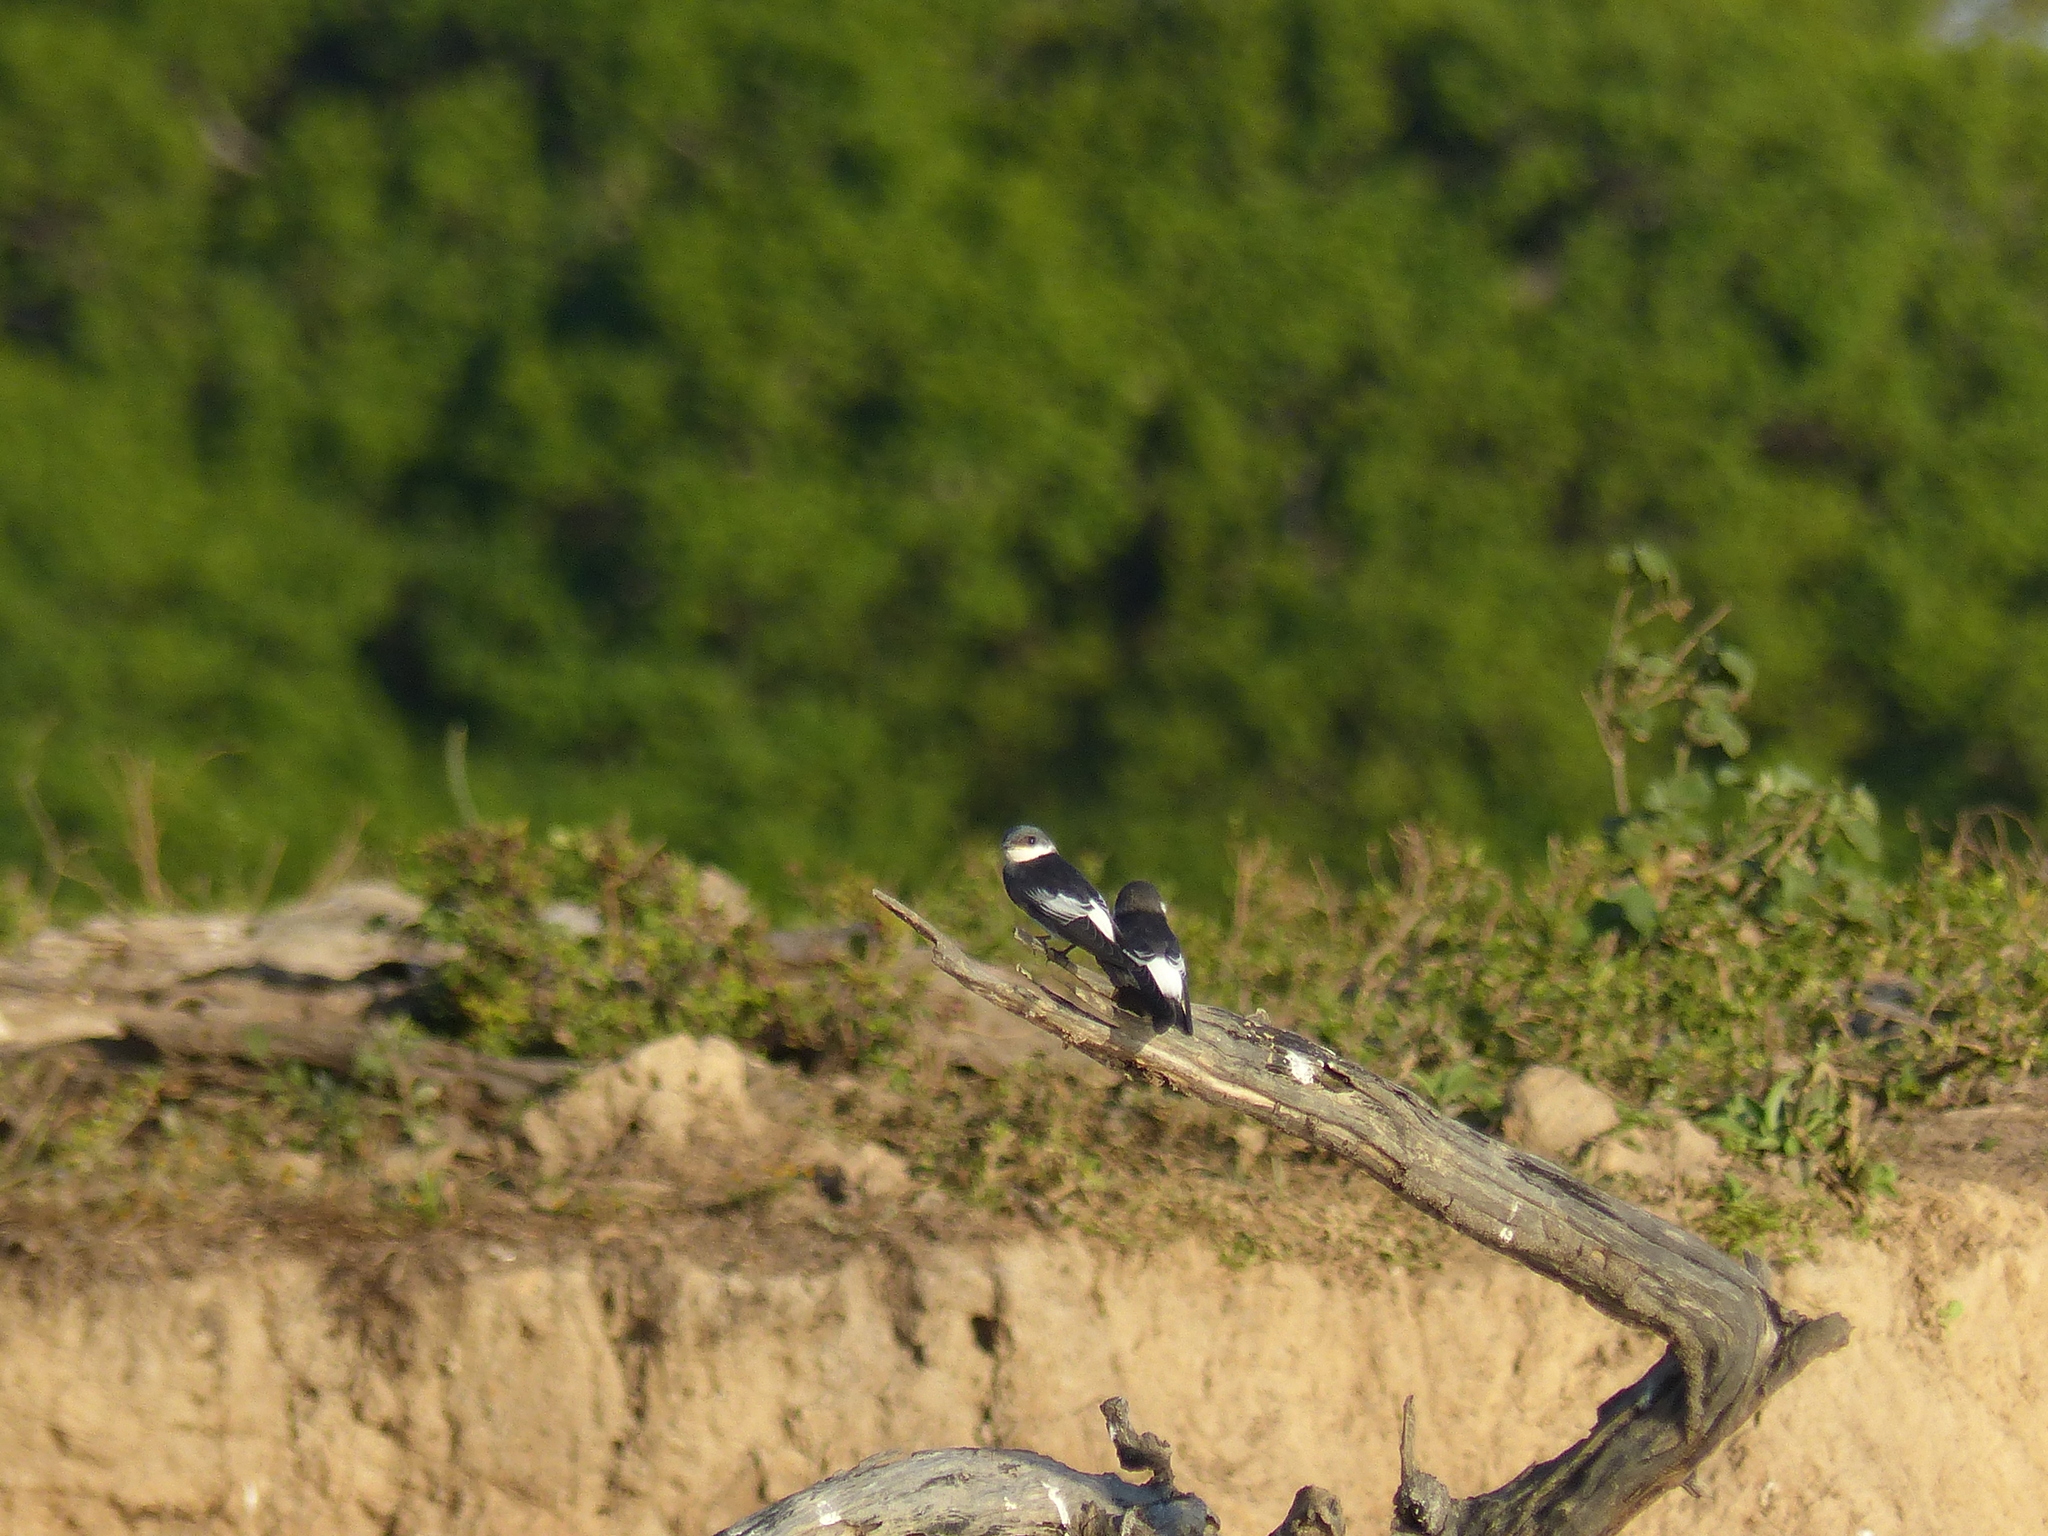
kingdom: Animalia
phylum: Chordata
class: Aves
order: Passeriformes
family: Hirundinidae
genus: Tachycineta
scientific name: Tachycineta albiventer
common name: White-winged swallow
